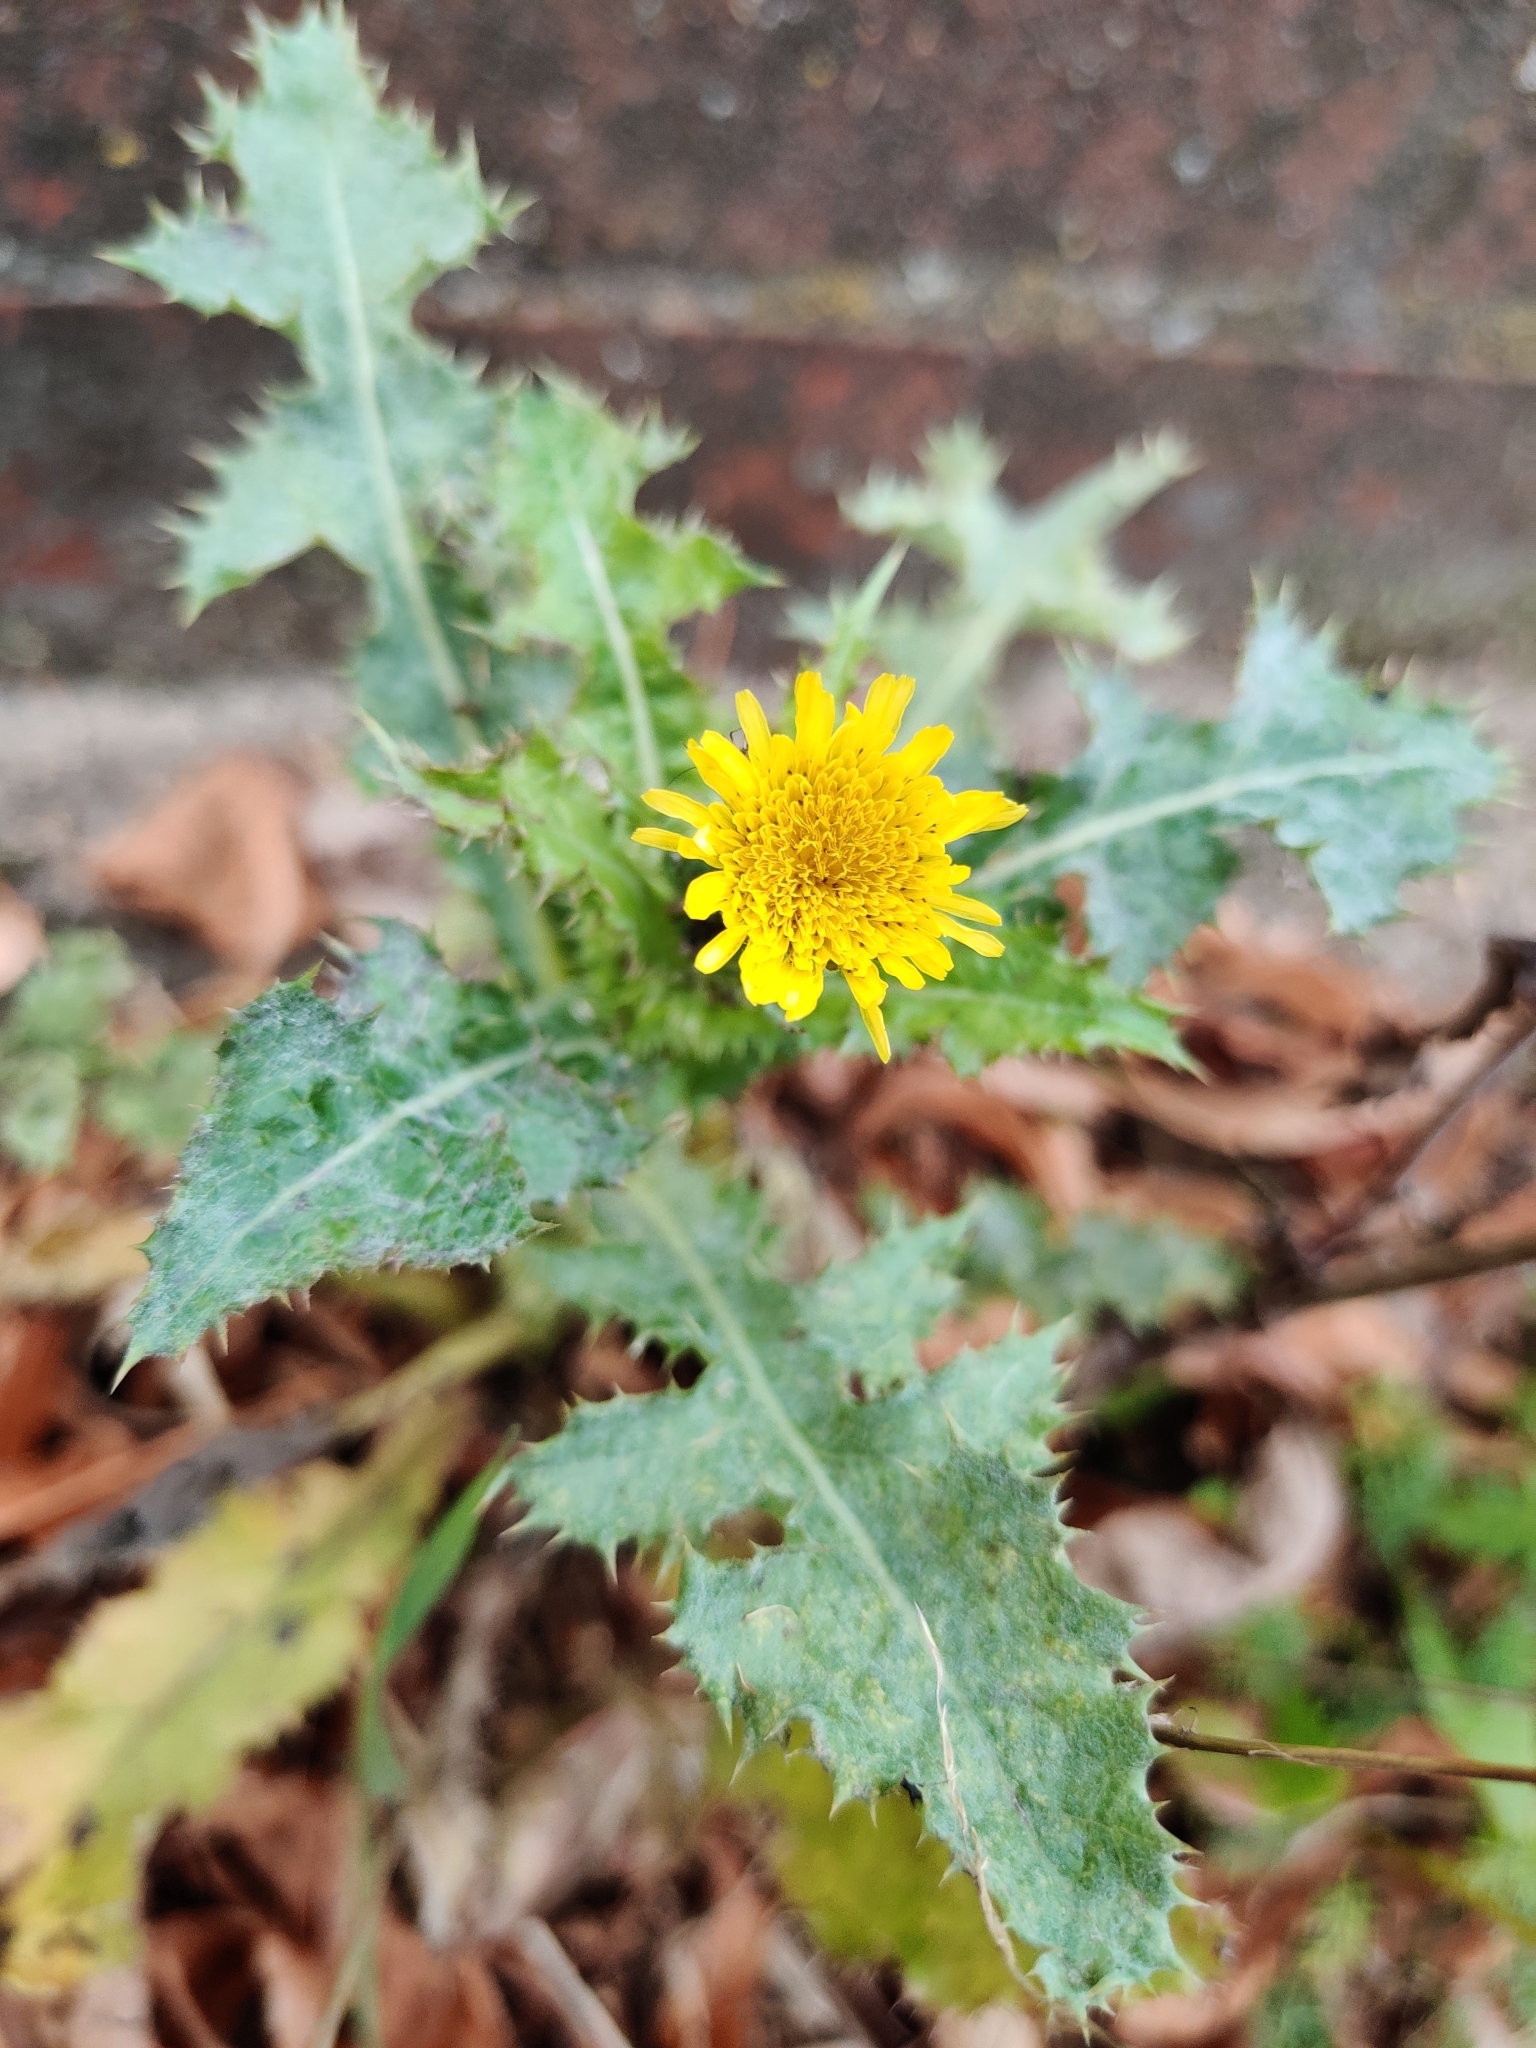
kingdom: Plantae
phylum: Tracheophyta
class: Magnoliopsida
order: Asterales
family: Asteraceae
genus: Sonchus
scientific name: Sonchus asper
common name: Prickly sow-thistle
